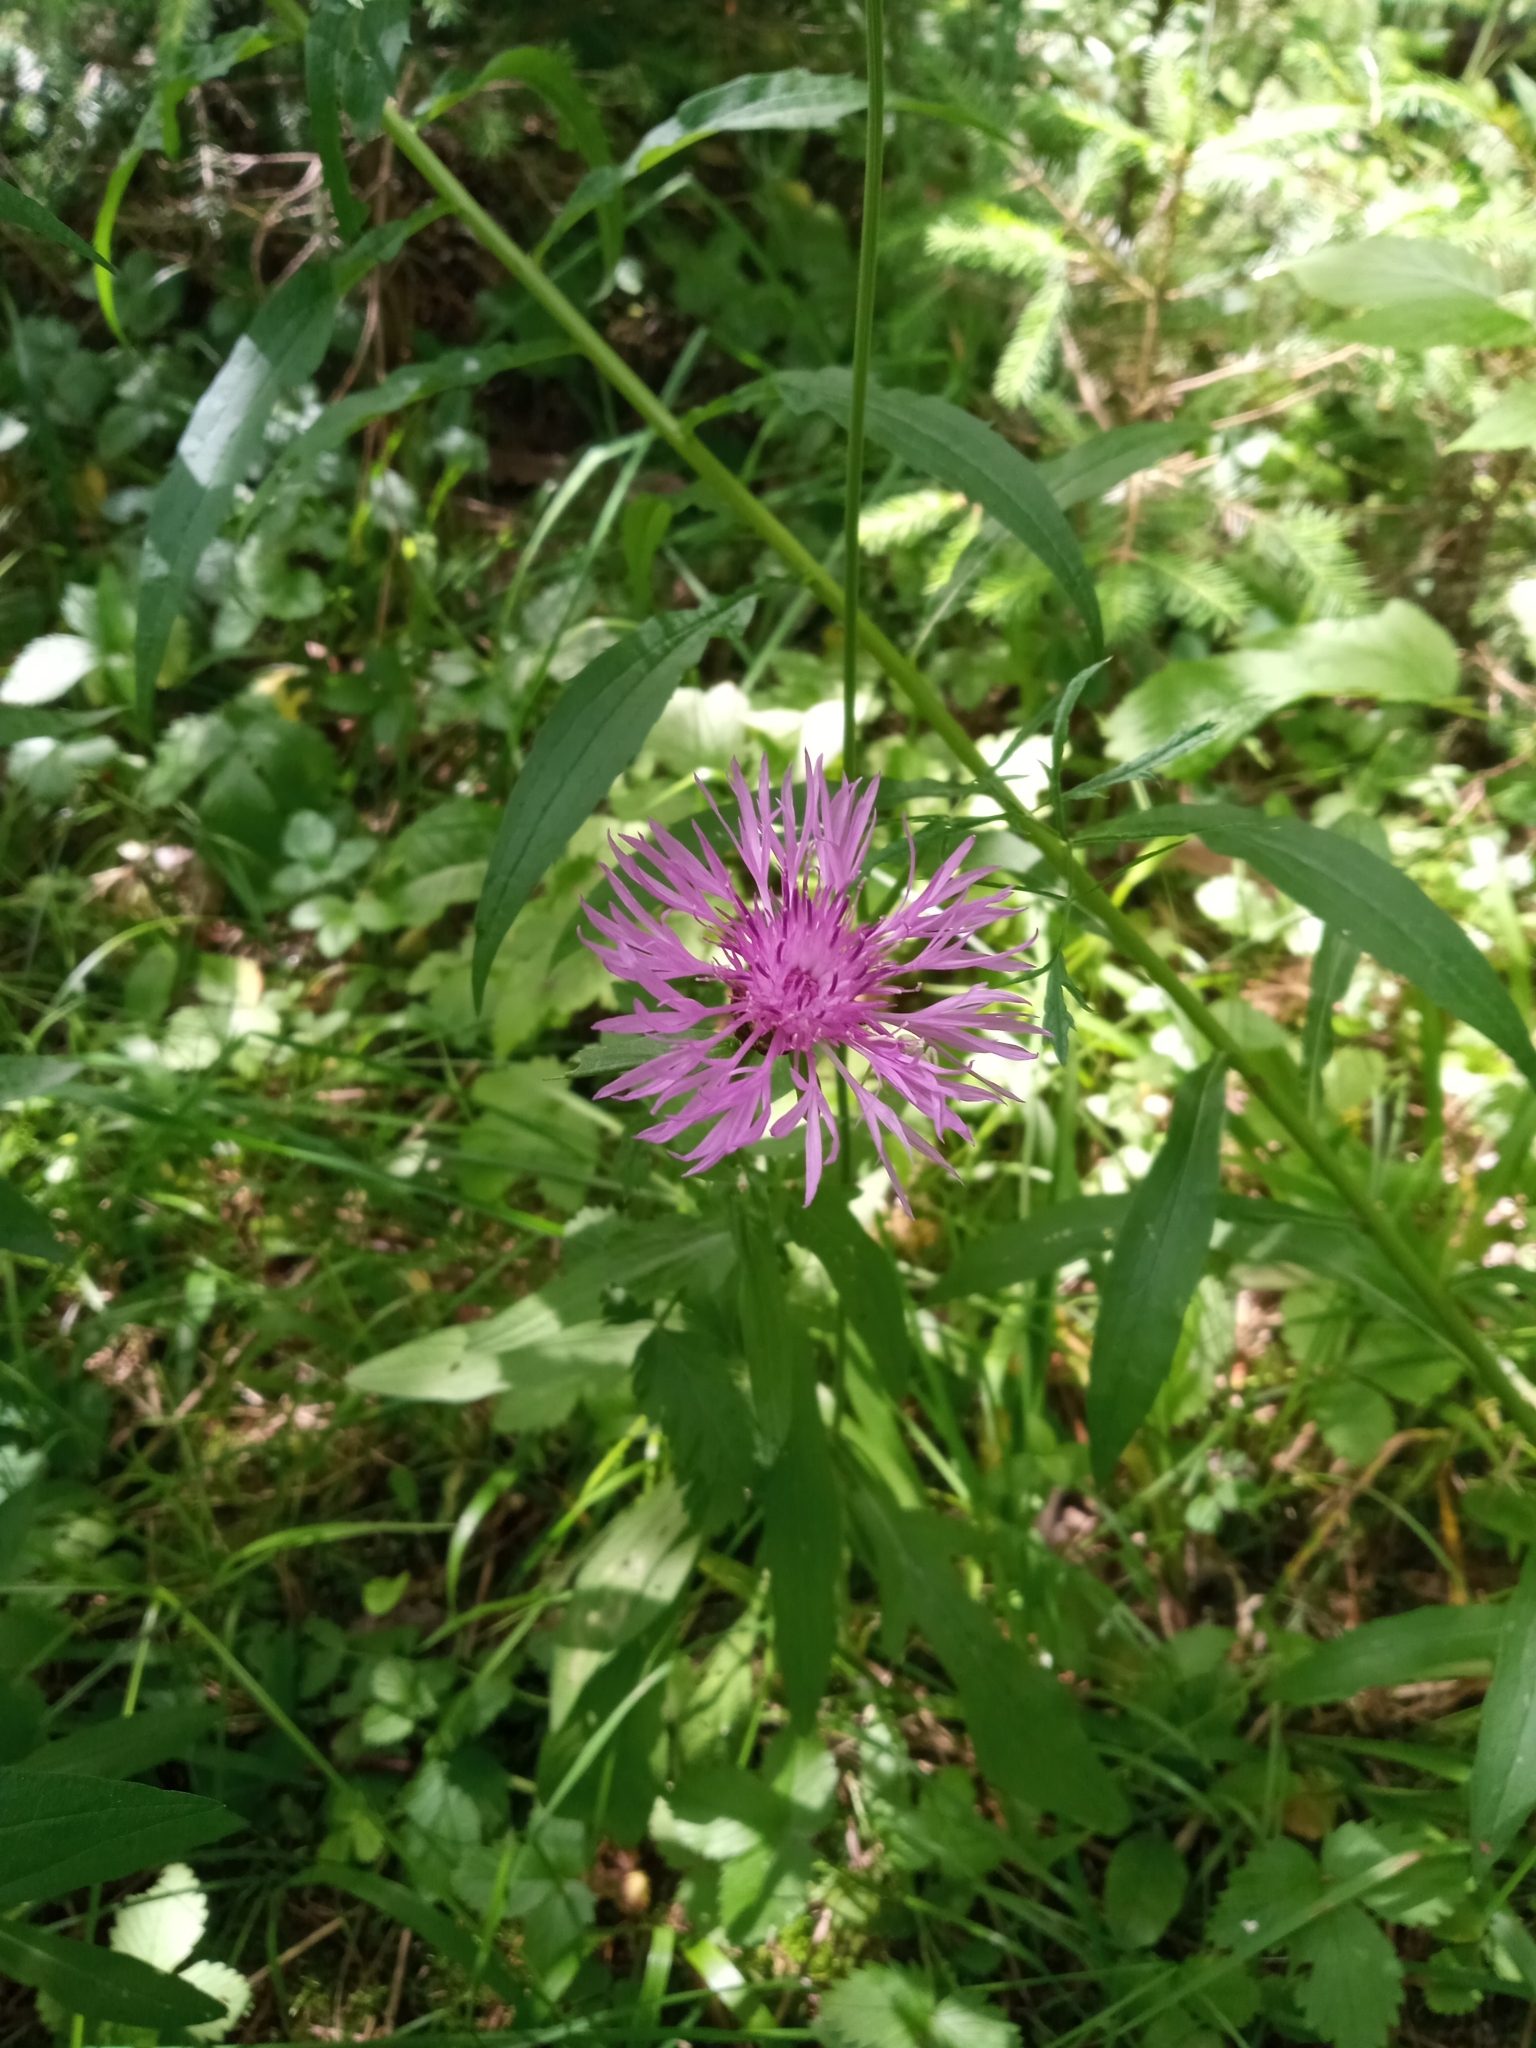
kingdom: Plantae
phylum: Tracheophyta
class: Magnoliopsida
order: Asterales
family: Asteraceae
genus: Centaurea
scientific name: Centaurea jacea
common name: Brown knapweed
